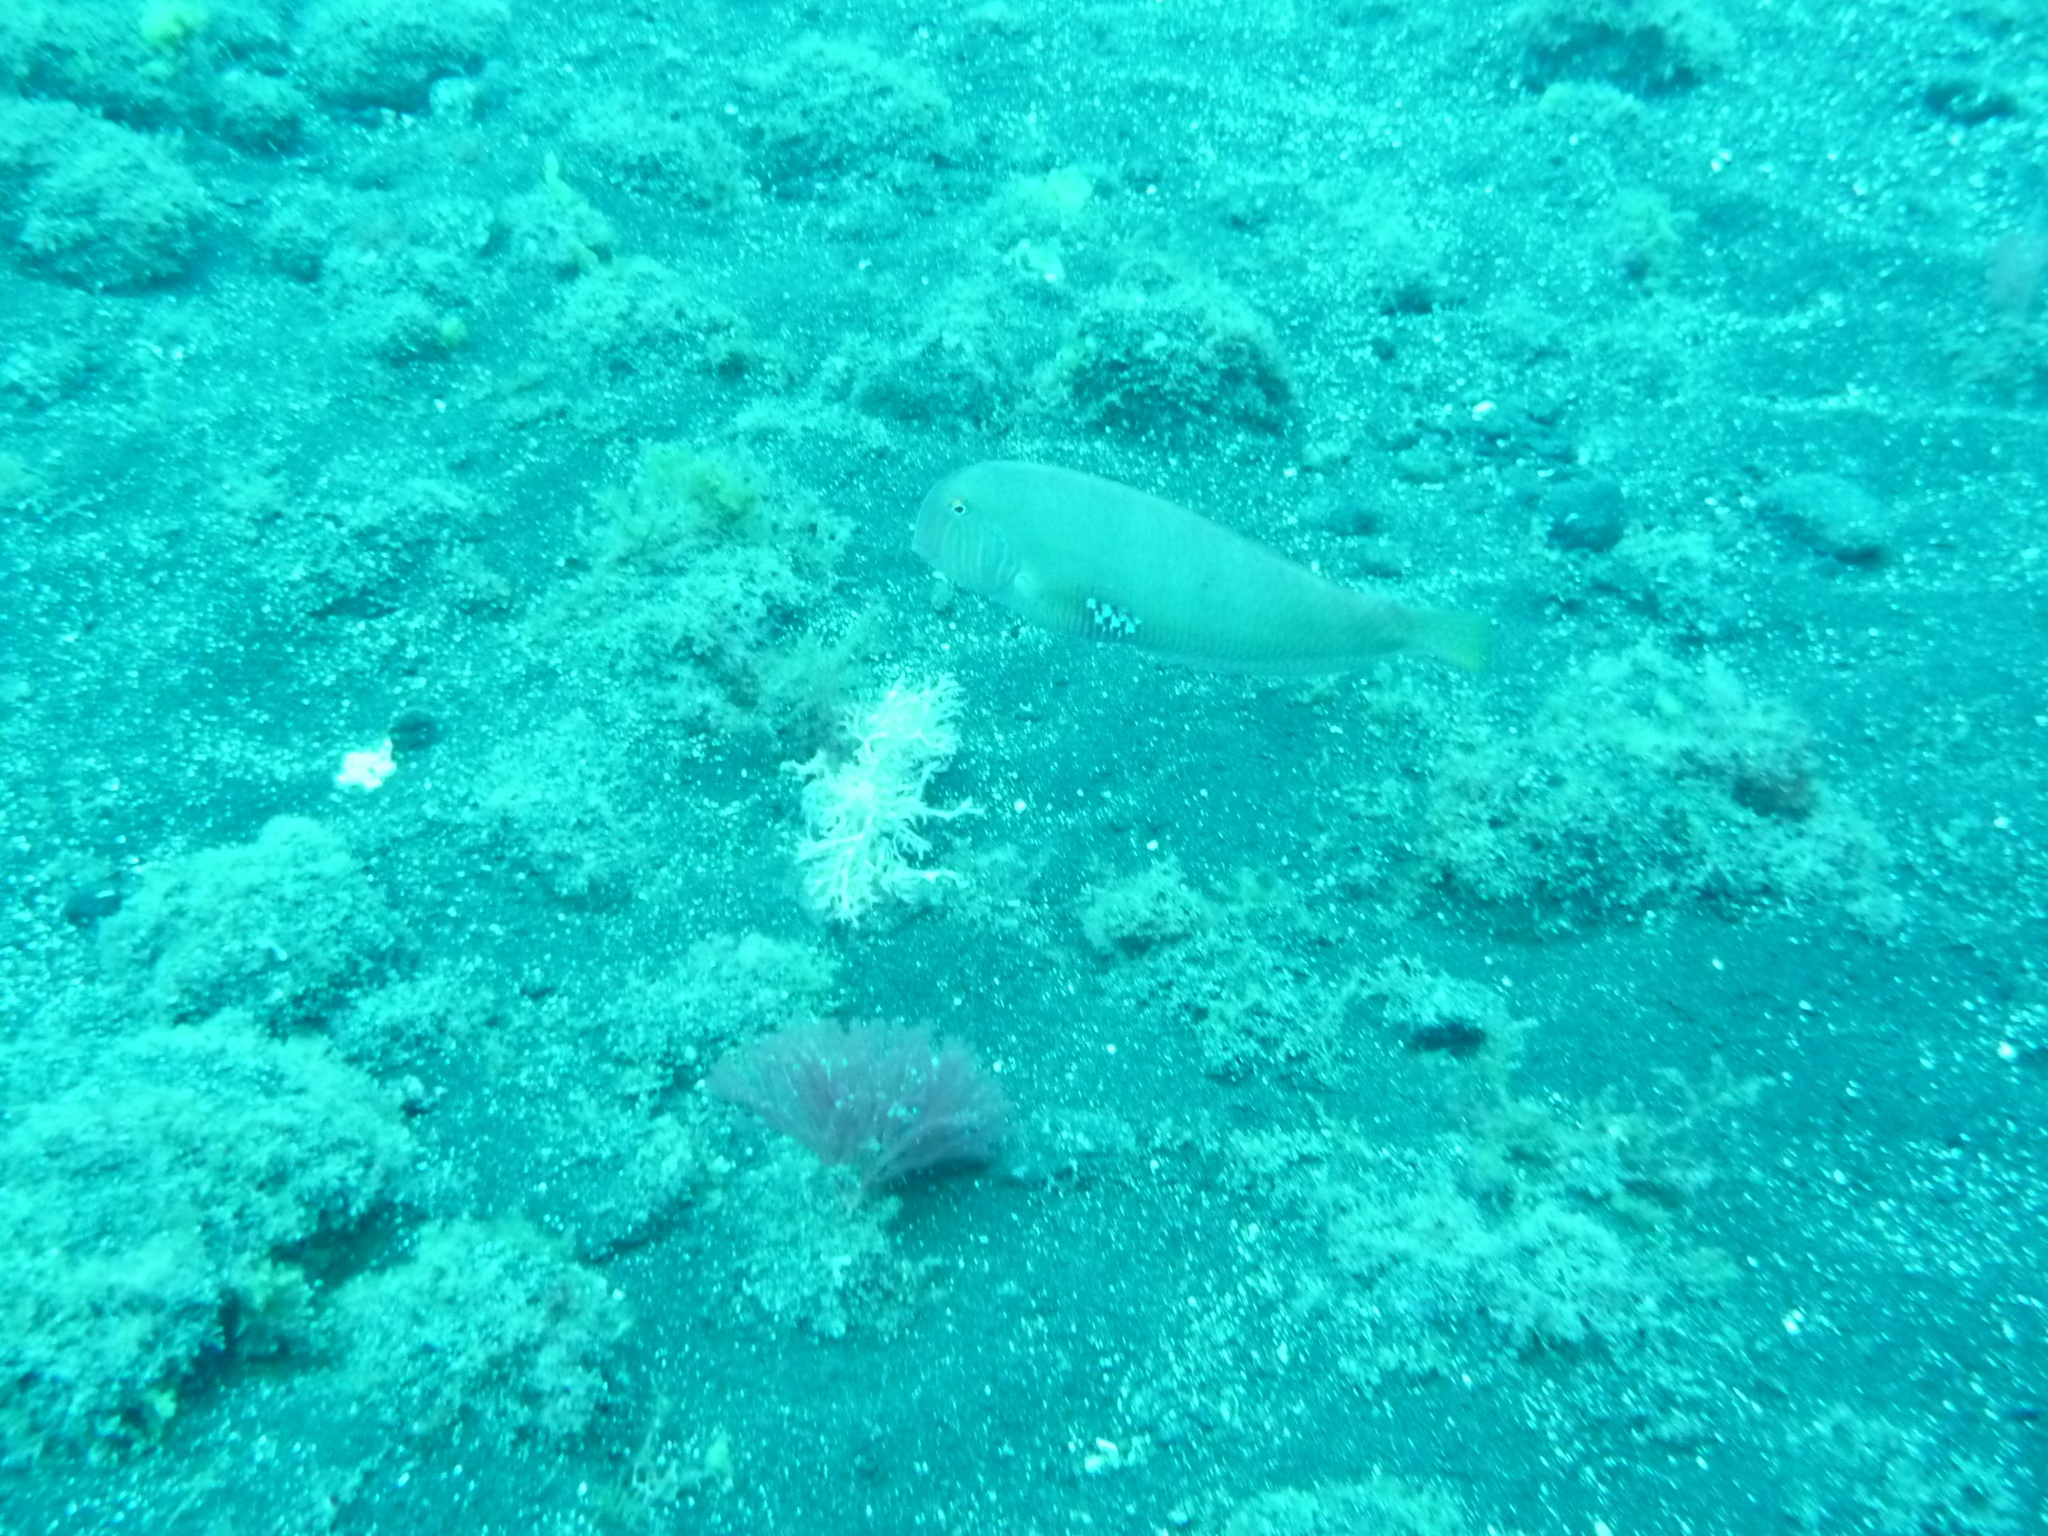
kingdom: Animalia
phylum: Chordata
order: Perciformes
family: Labridae
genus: Xyrichtys
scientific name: Xyrichtys novacula
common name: Pearly razorfish
